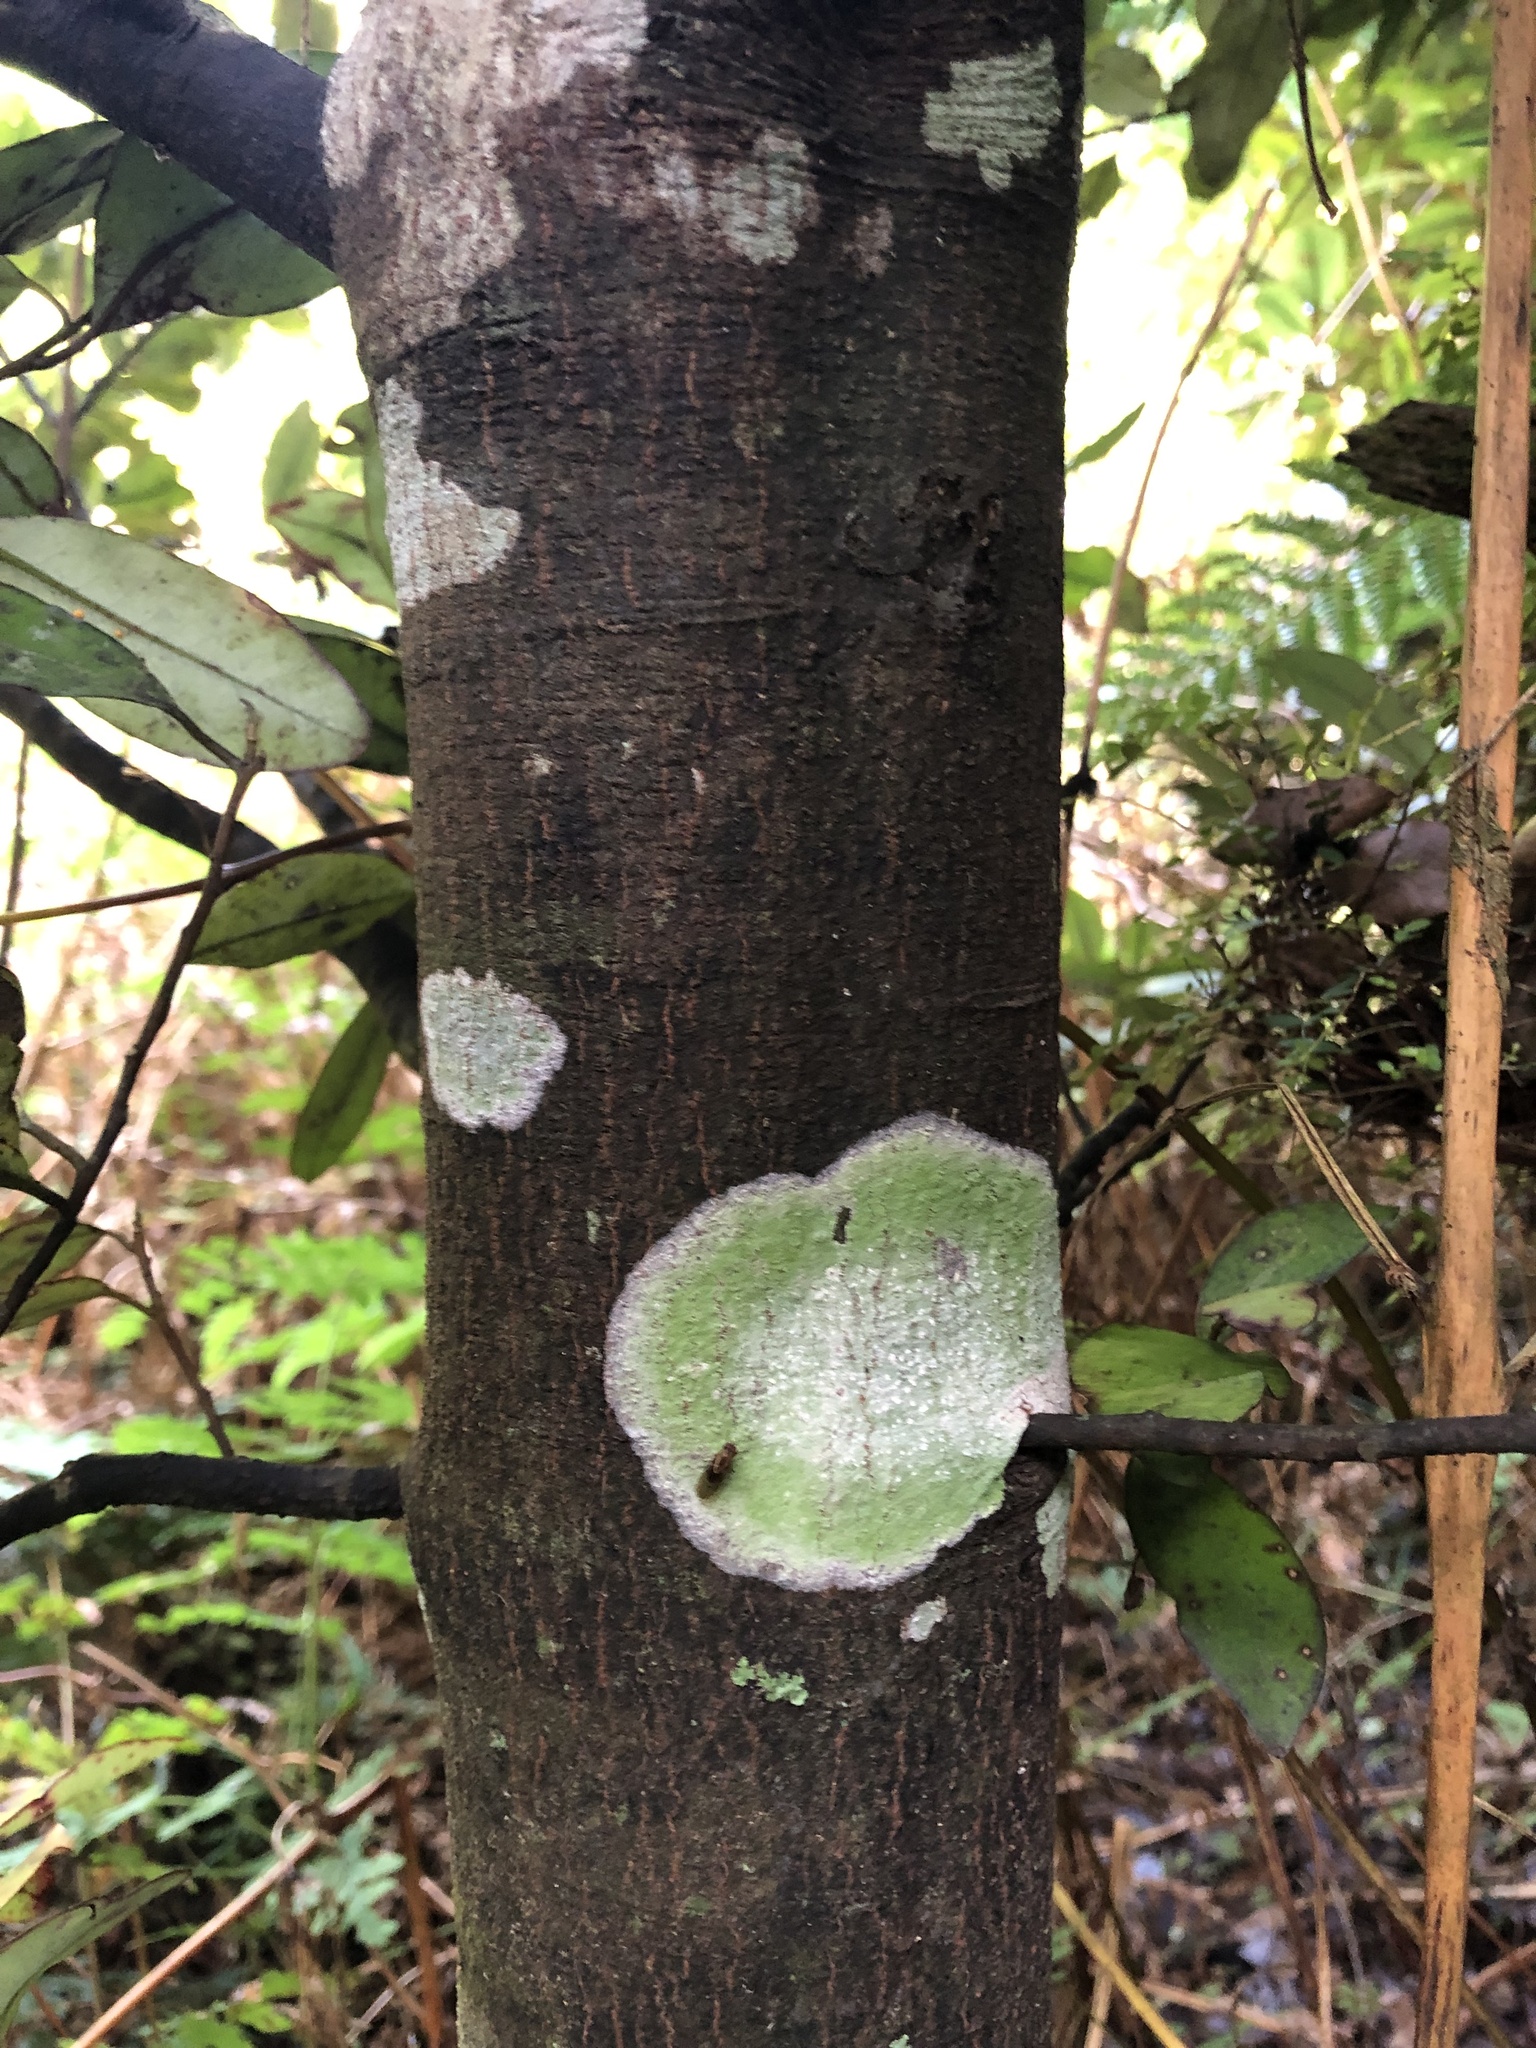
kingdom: Plantae
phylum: Tracheophyta
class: Magnoliopsida
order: Canellales
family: Winteraceae
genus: Pseudowintera
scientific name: Pseudowintera colorata
